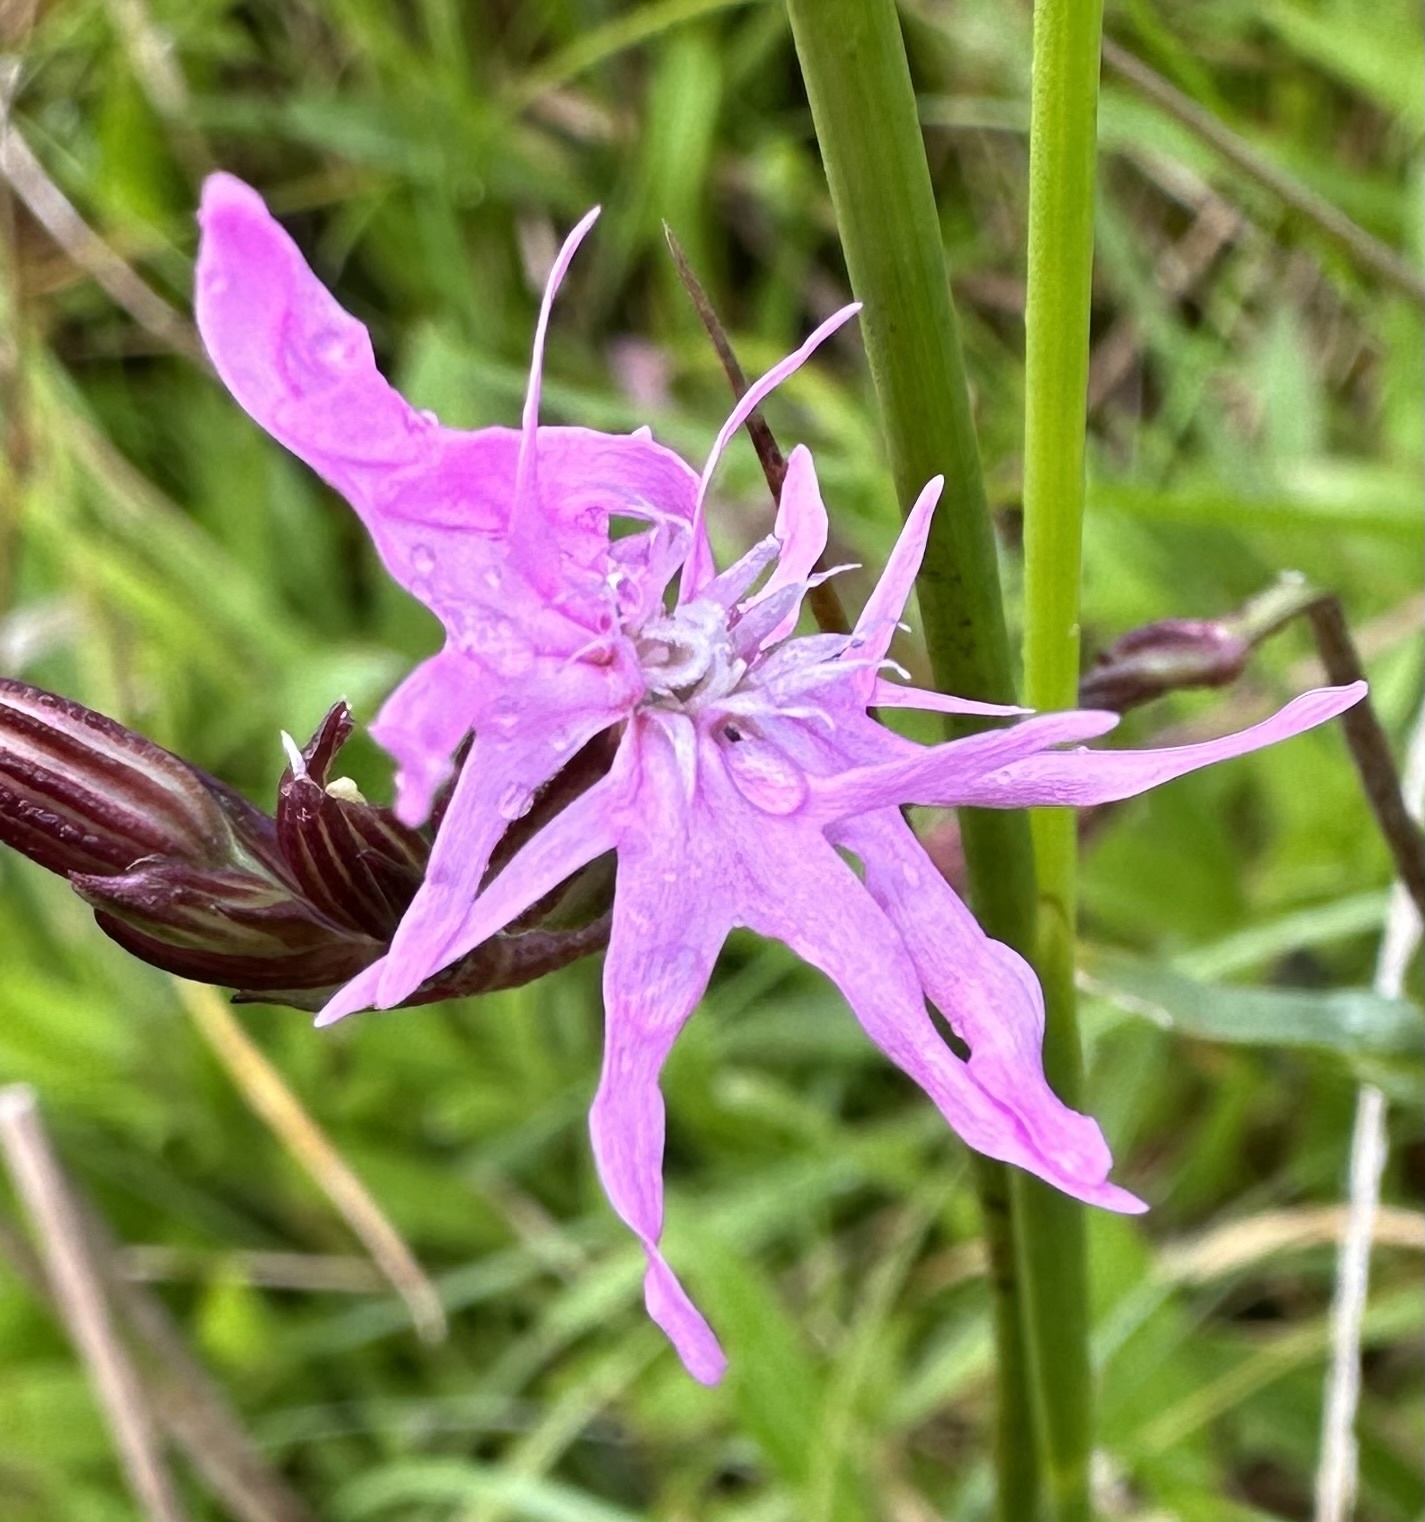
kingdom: Plantae
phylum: Tracheophyta
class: Magnoliopsida
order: Caryophyllales
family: Caryophyllaceae
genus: Silene
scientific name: Silene flos-cuculi
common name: Ragged-robin
